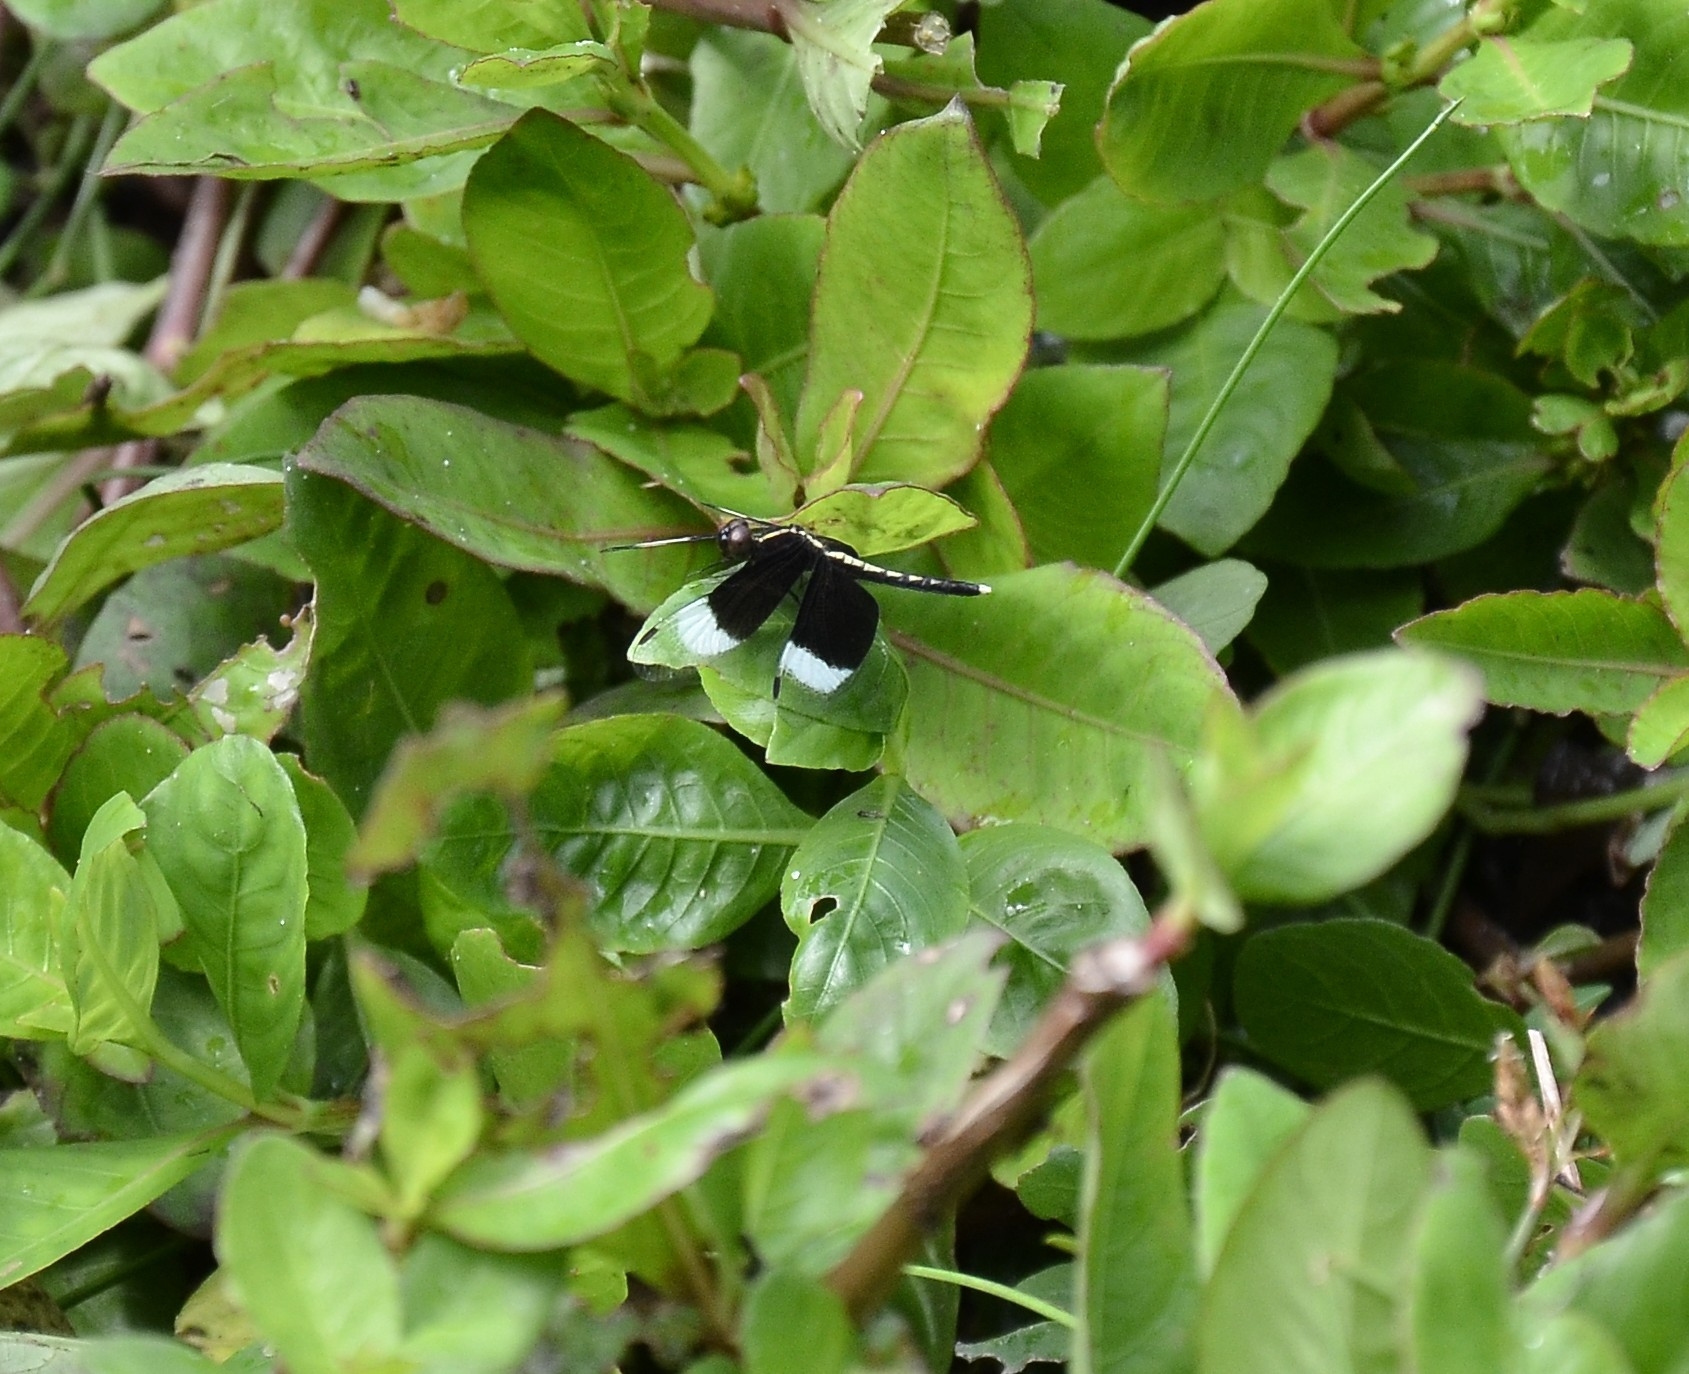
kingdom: Animalia
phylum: Arthropoda
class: Insecta
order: Odonata
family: Libellulidae
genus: Neurothemis
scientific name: Neurothemis tullia
